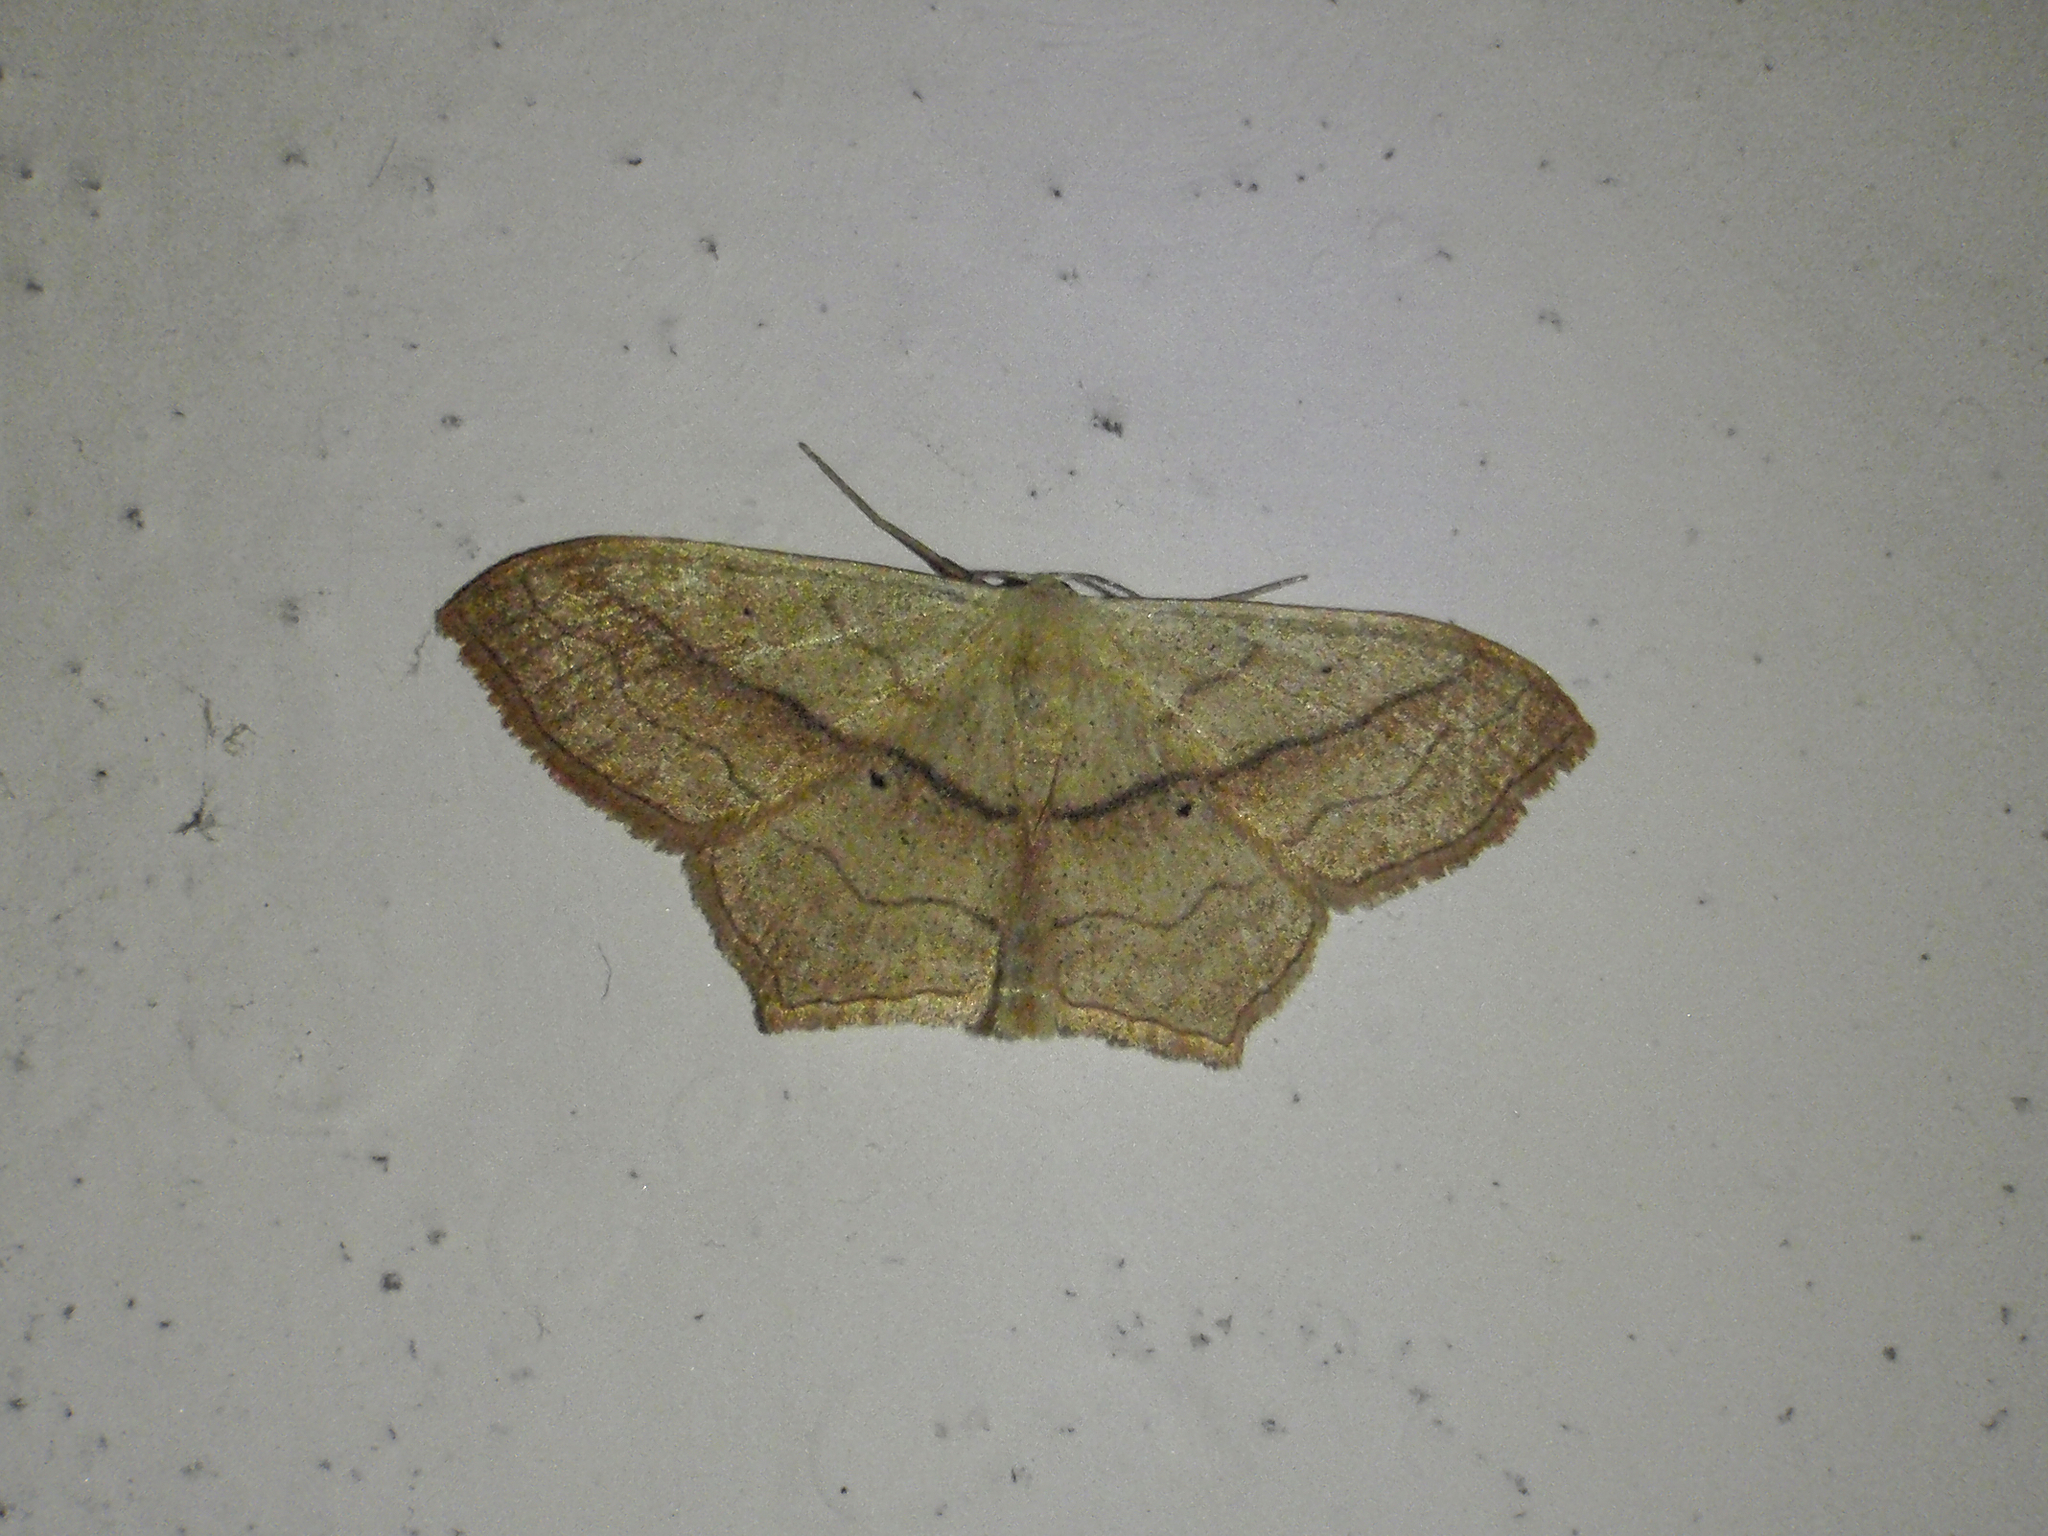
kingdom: Animalia
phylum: Arthropoda
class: Insecta
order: Lepidoptera
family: Geometridae
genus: Scopula
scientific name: Scopula imitaria
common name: Small blood-vein
